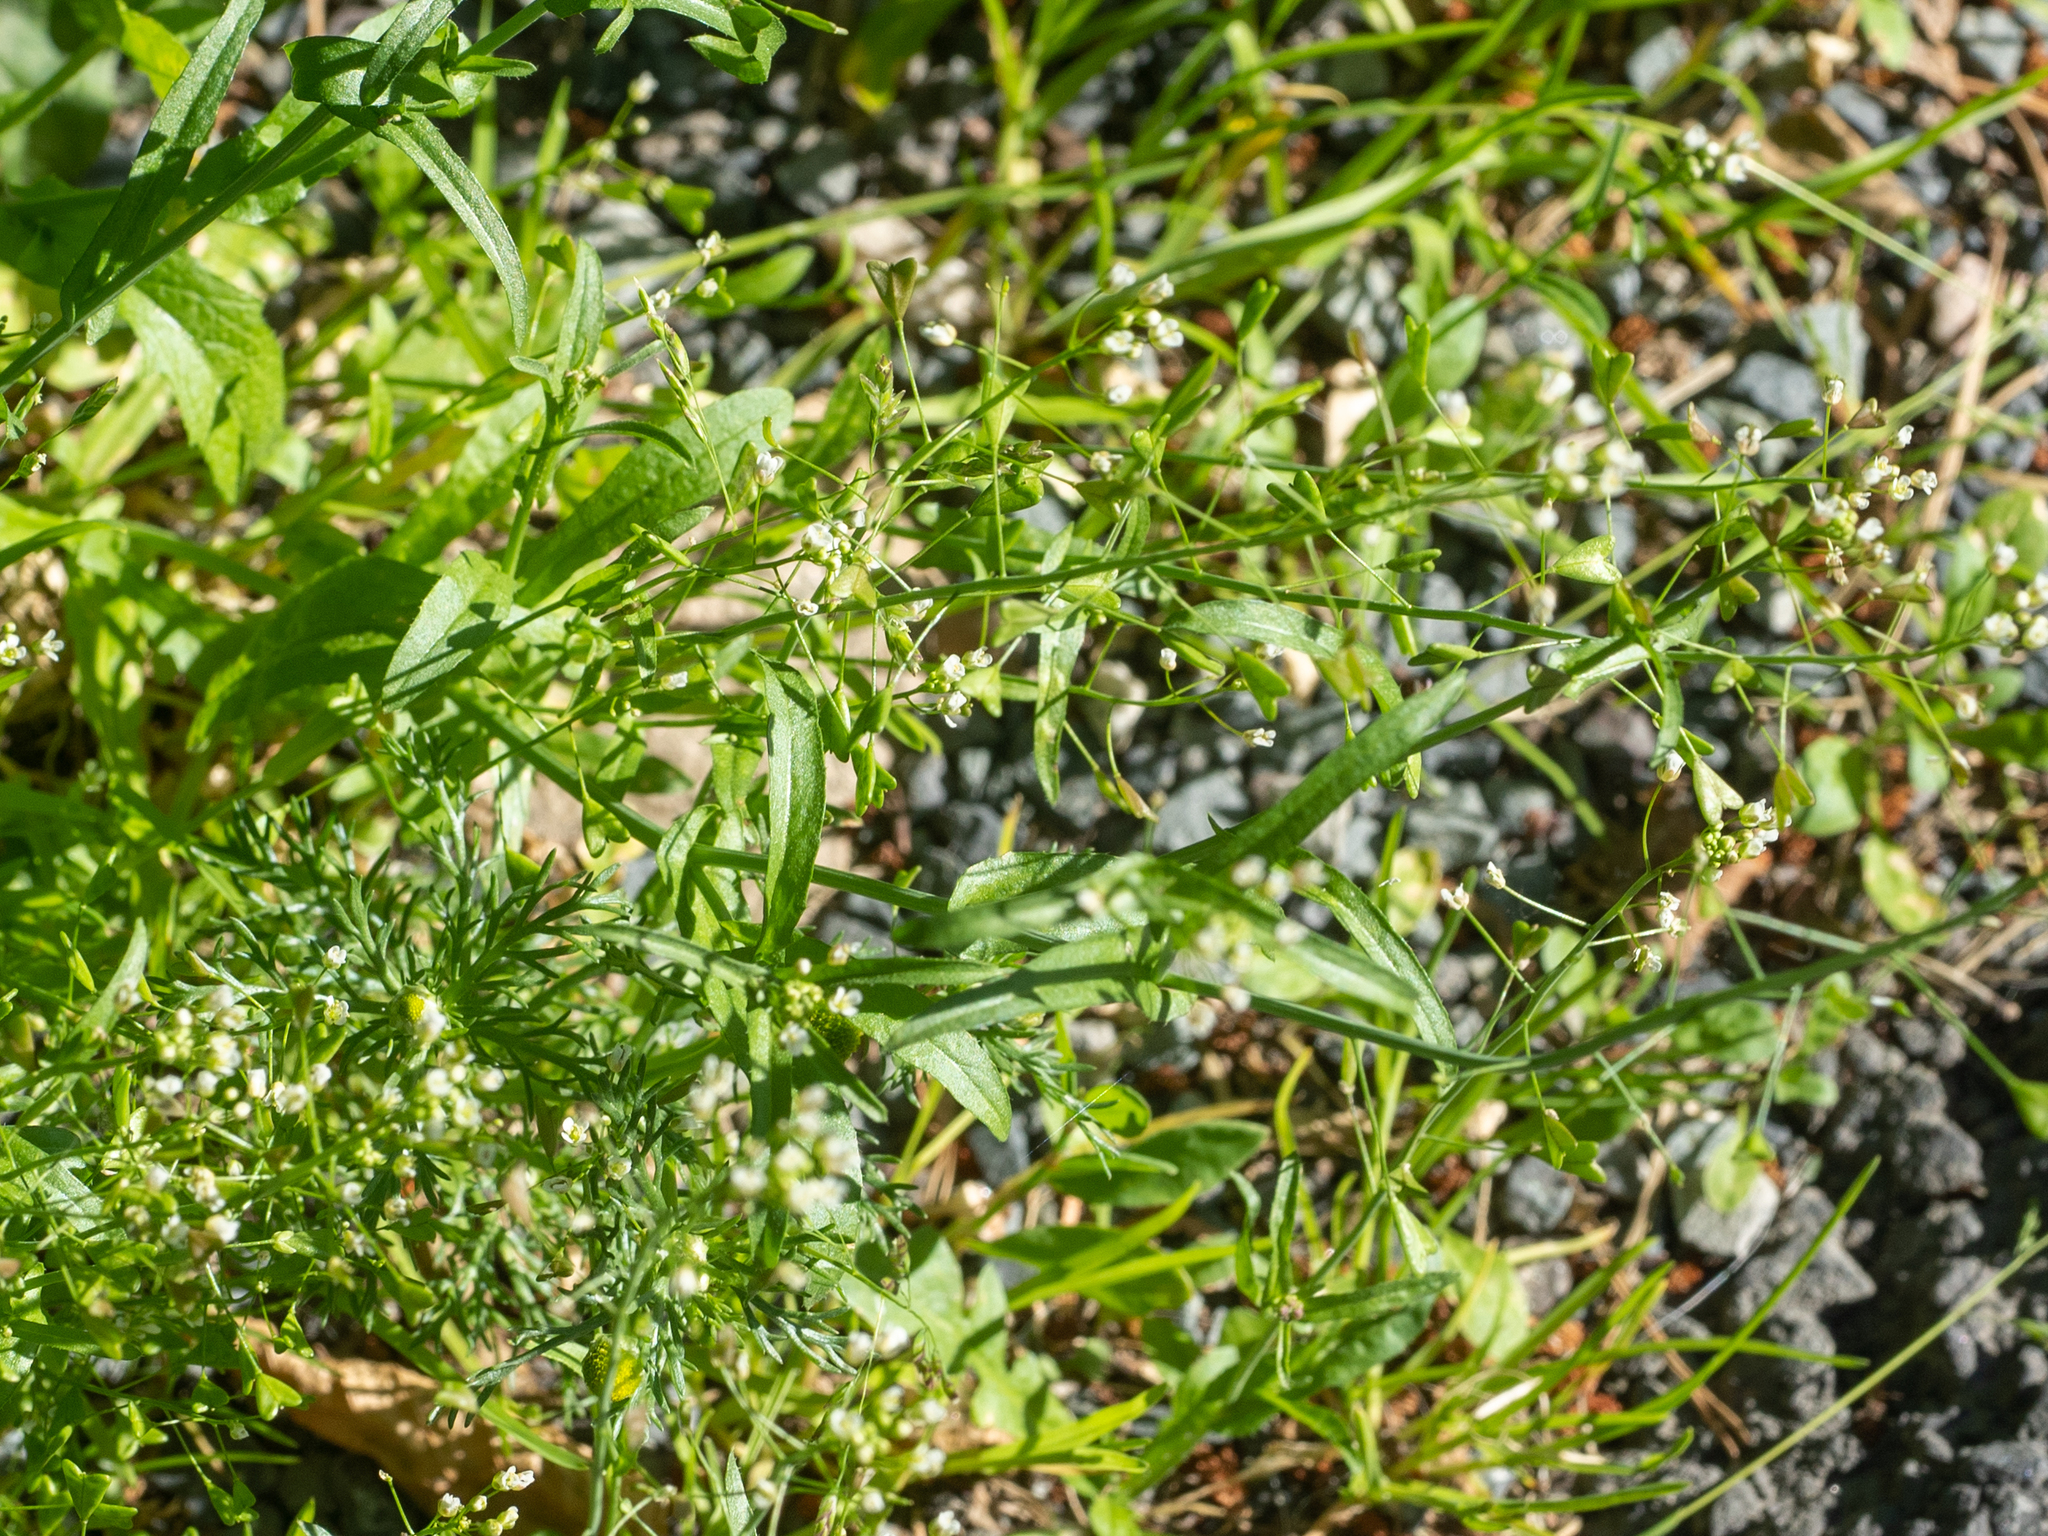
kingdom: Plantae
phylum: Tracheophyta
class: Magnoliopsida
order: Brassicales
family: Brassicaceae
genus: Capsella
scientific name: Capsella bursa-pastoris
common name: Shepherd's purse
